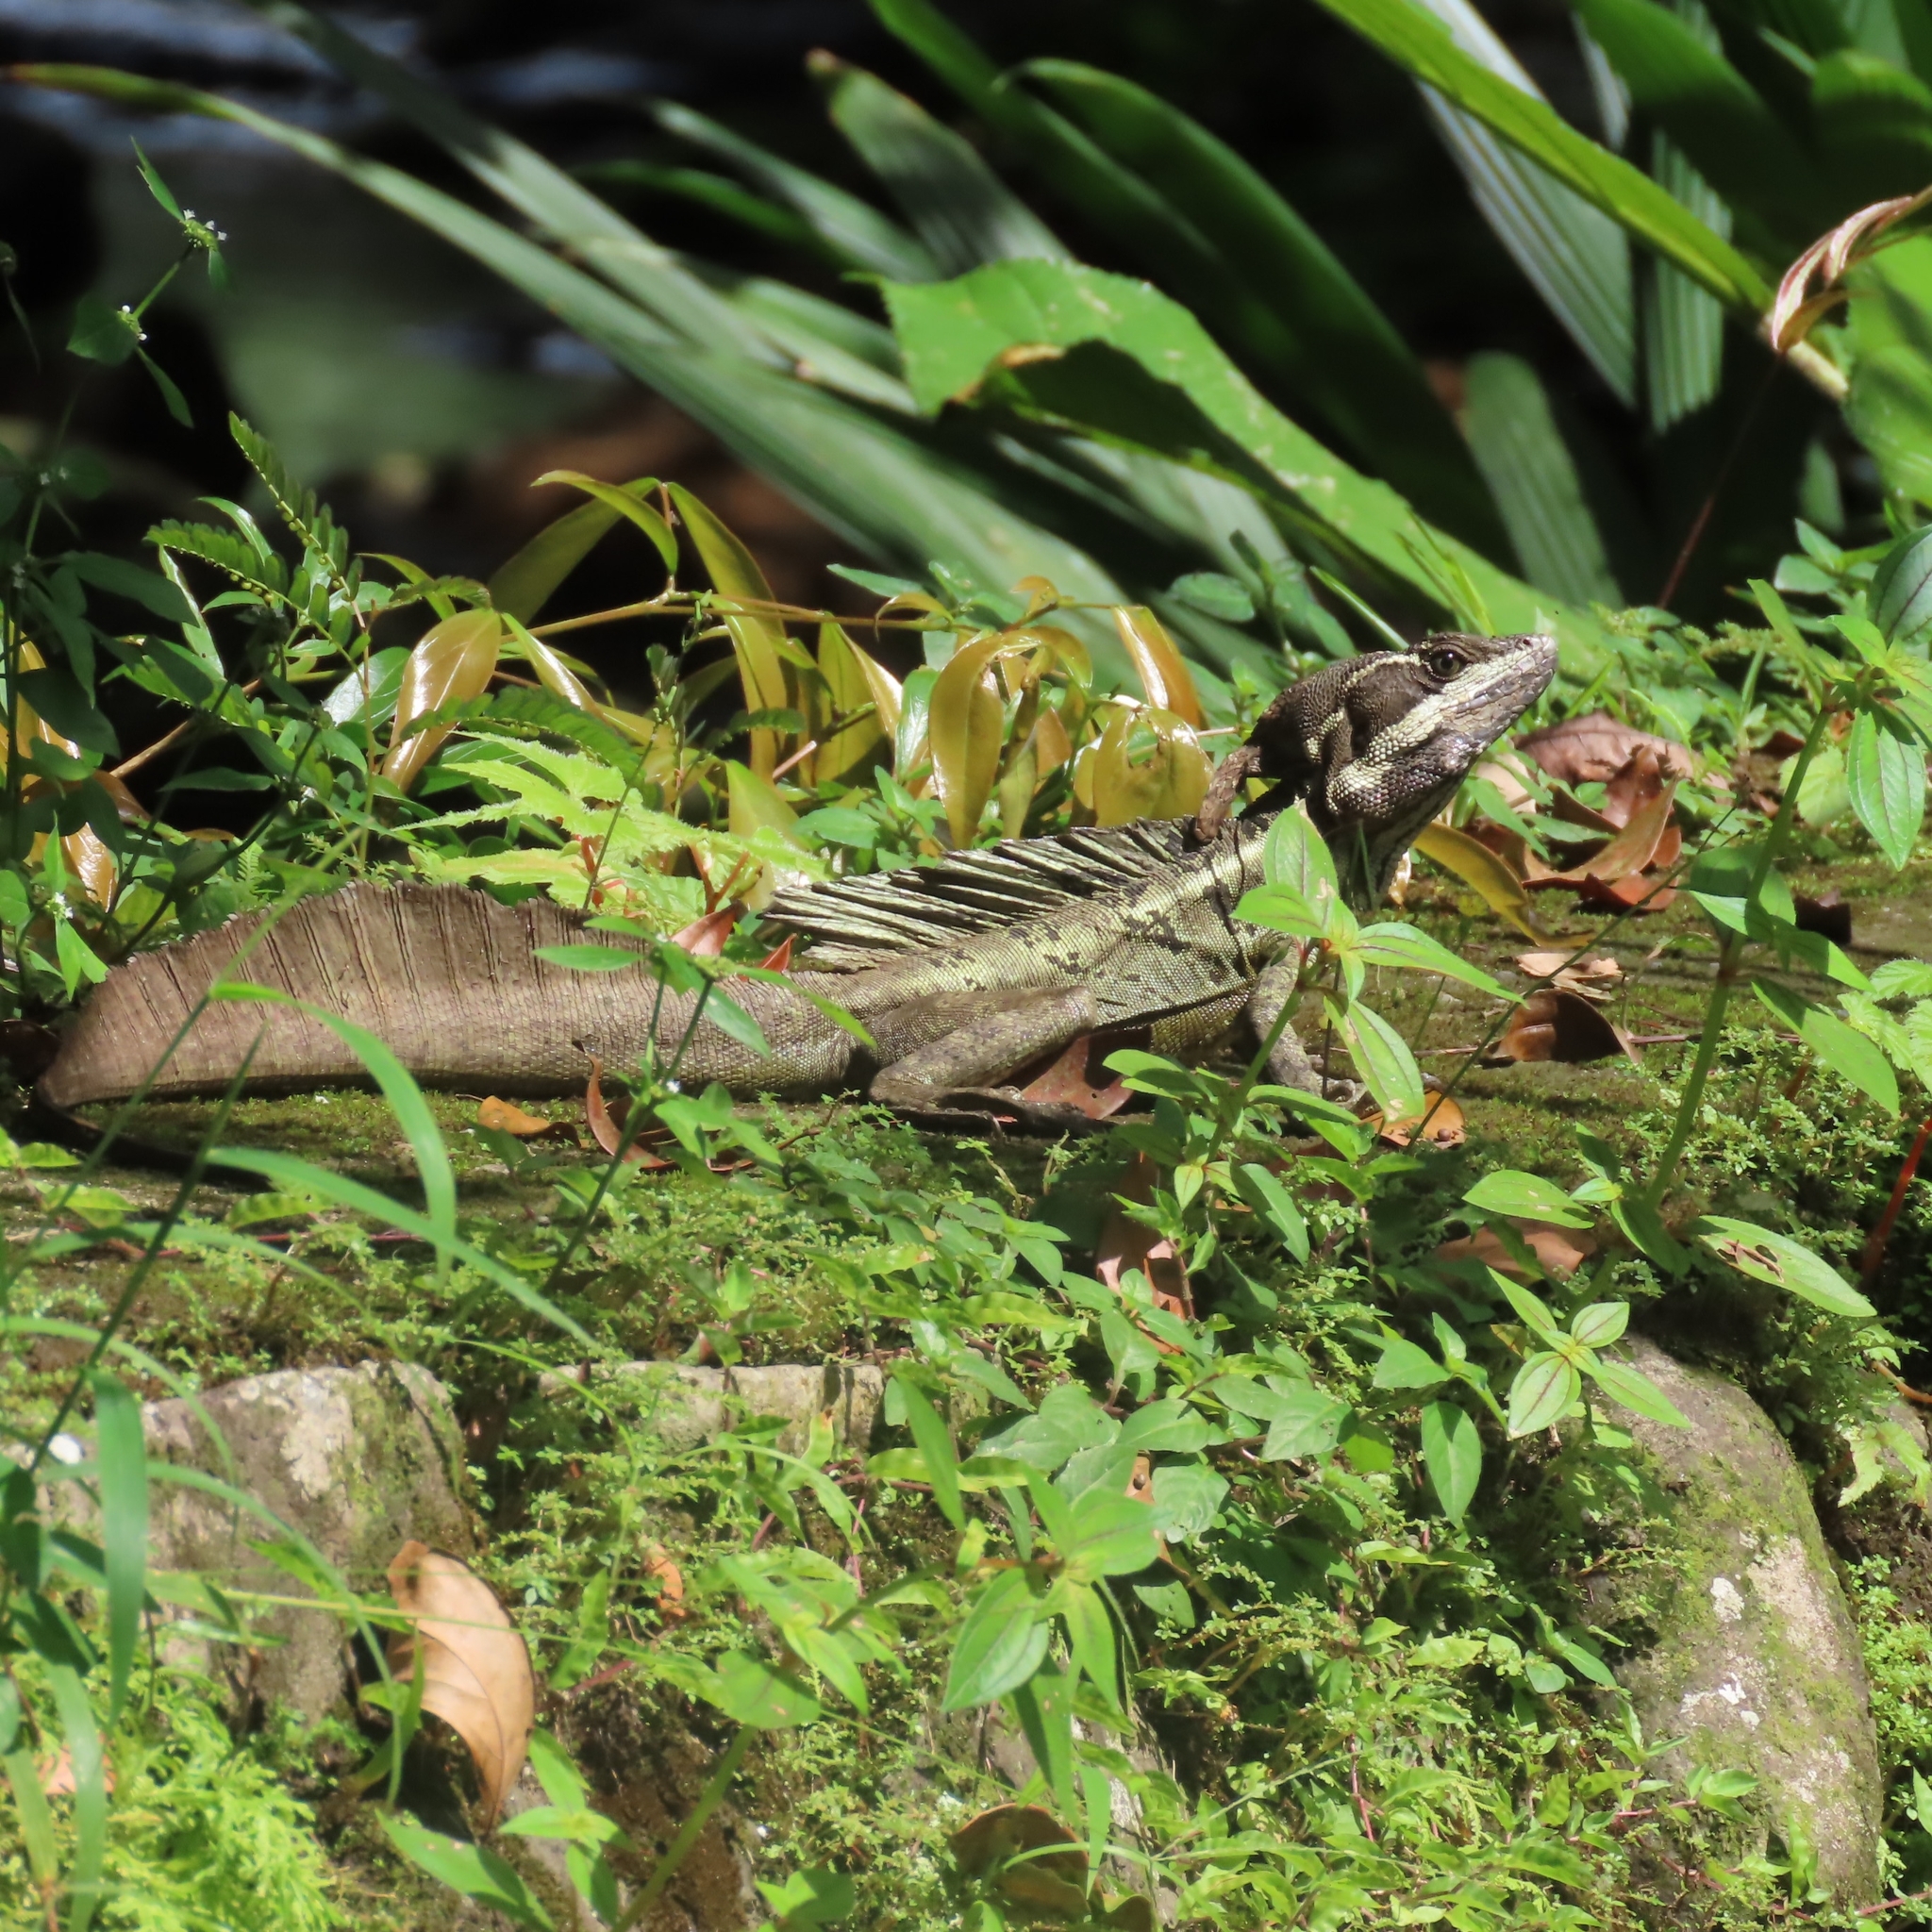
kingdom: Animalia
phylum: Chordata
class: Squamata
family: Corytophanidae
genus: Basiliscus
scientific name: Basiliscus basiliscus
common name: Common basilisk
